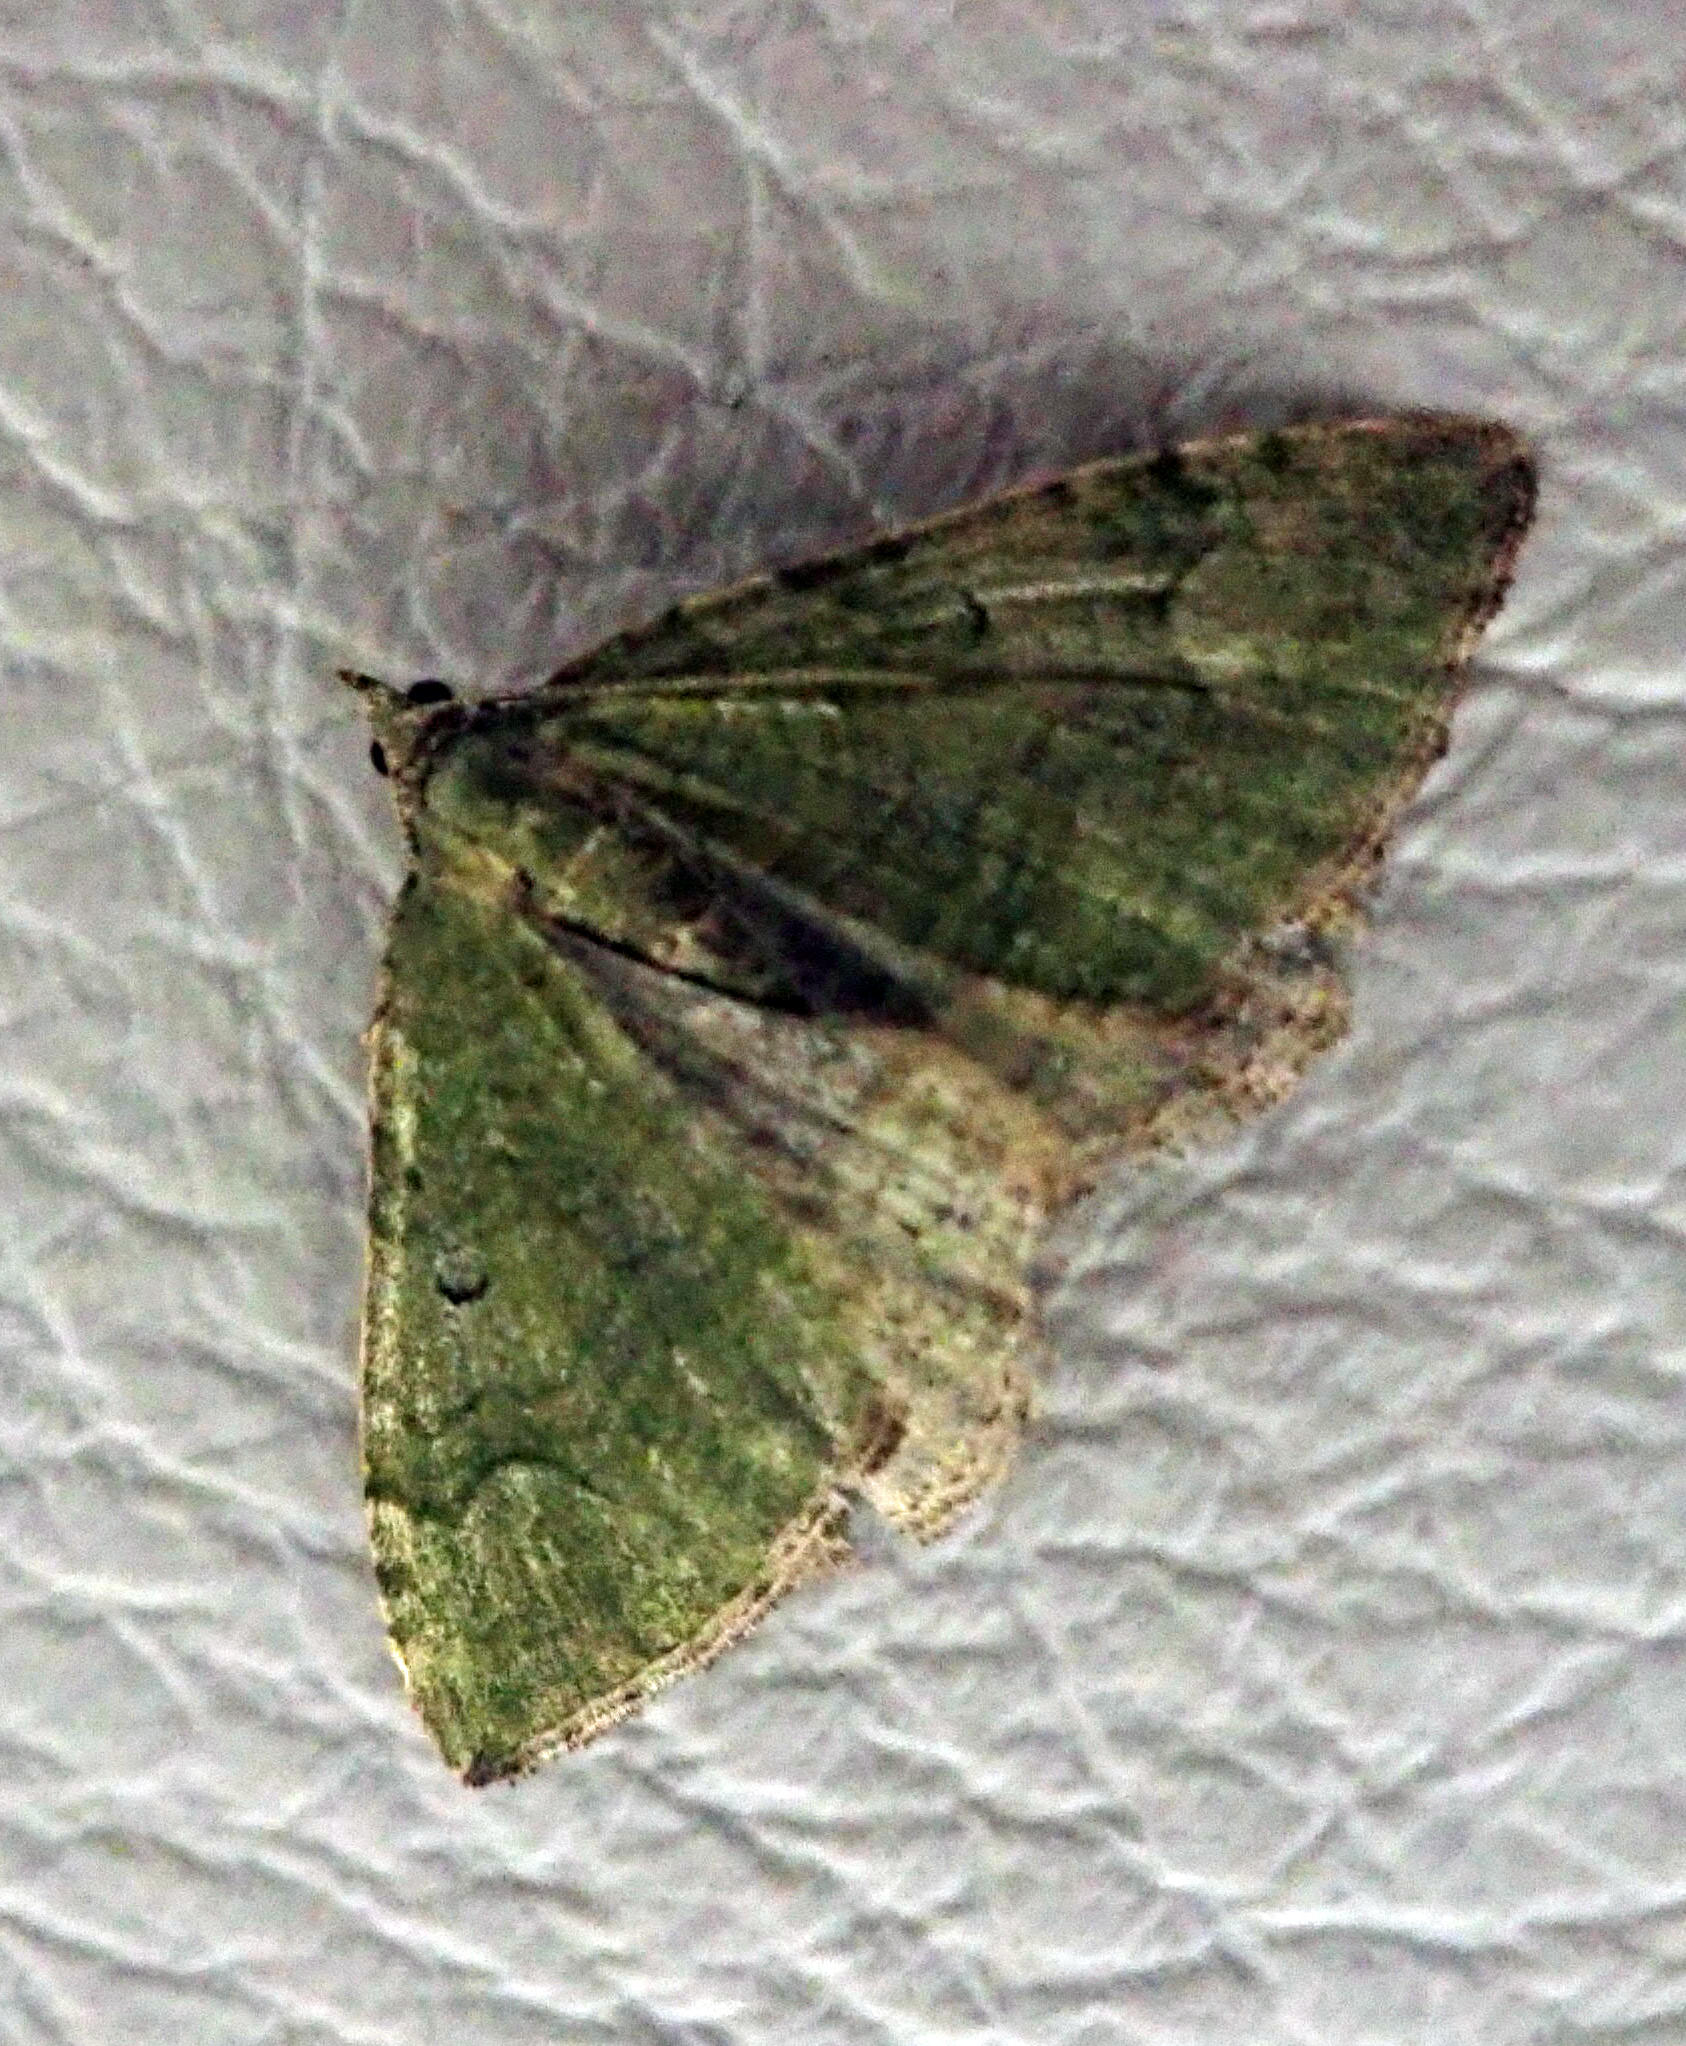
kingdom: Animalia
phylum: Arthropoda
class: Insecta
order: Lepidoptera
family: Geometridae
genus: Epyaxa
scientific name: Epyaxa rosearia
